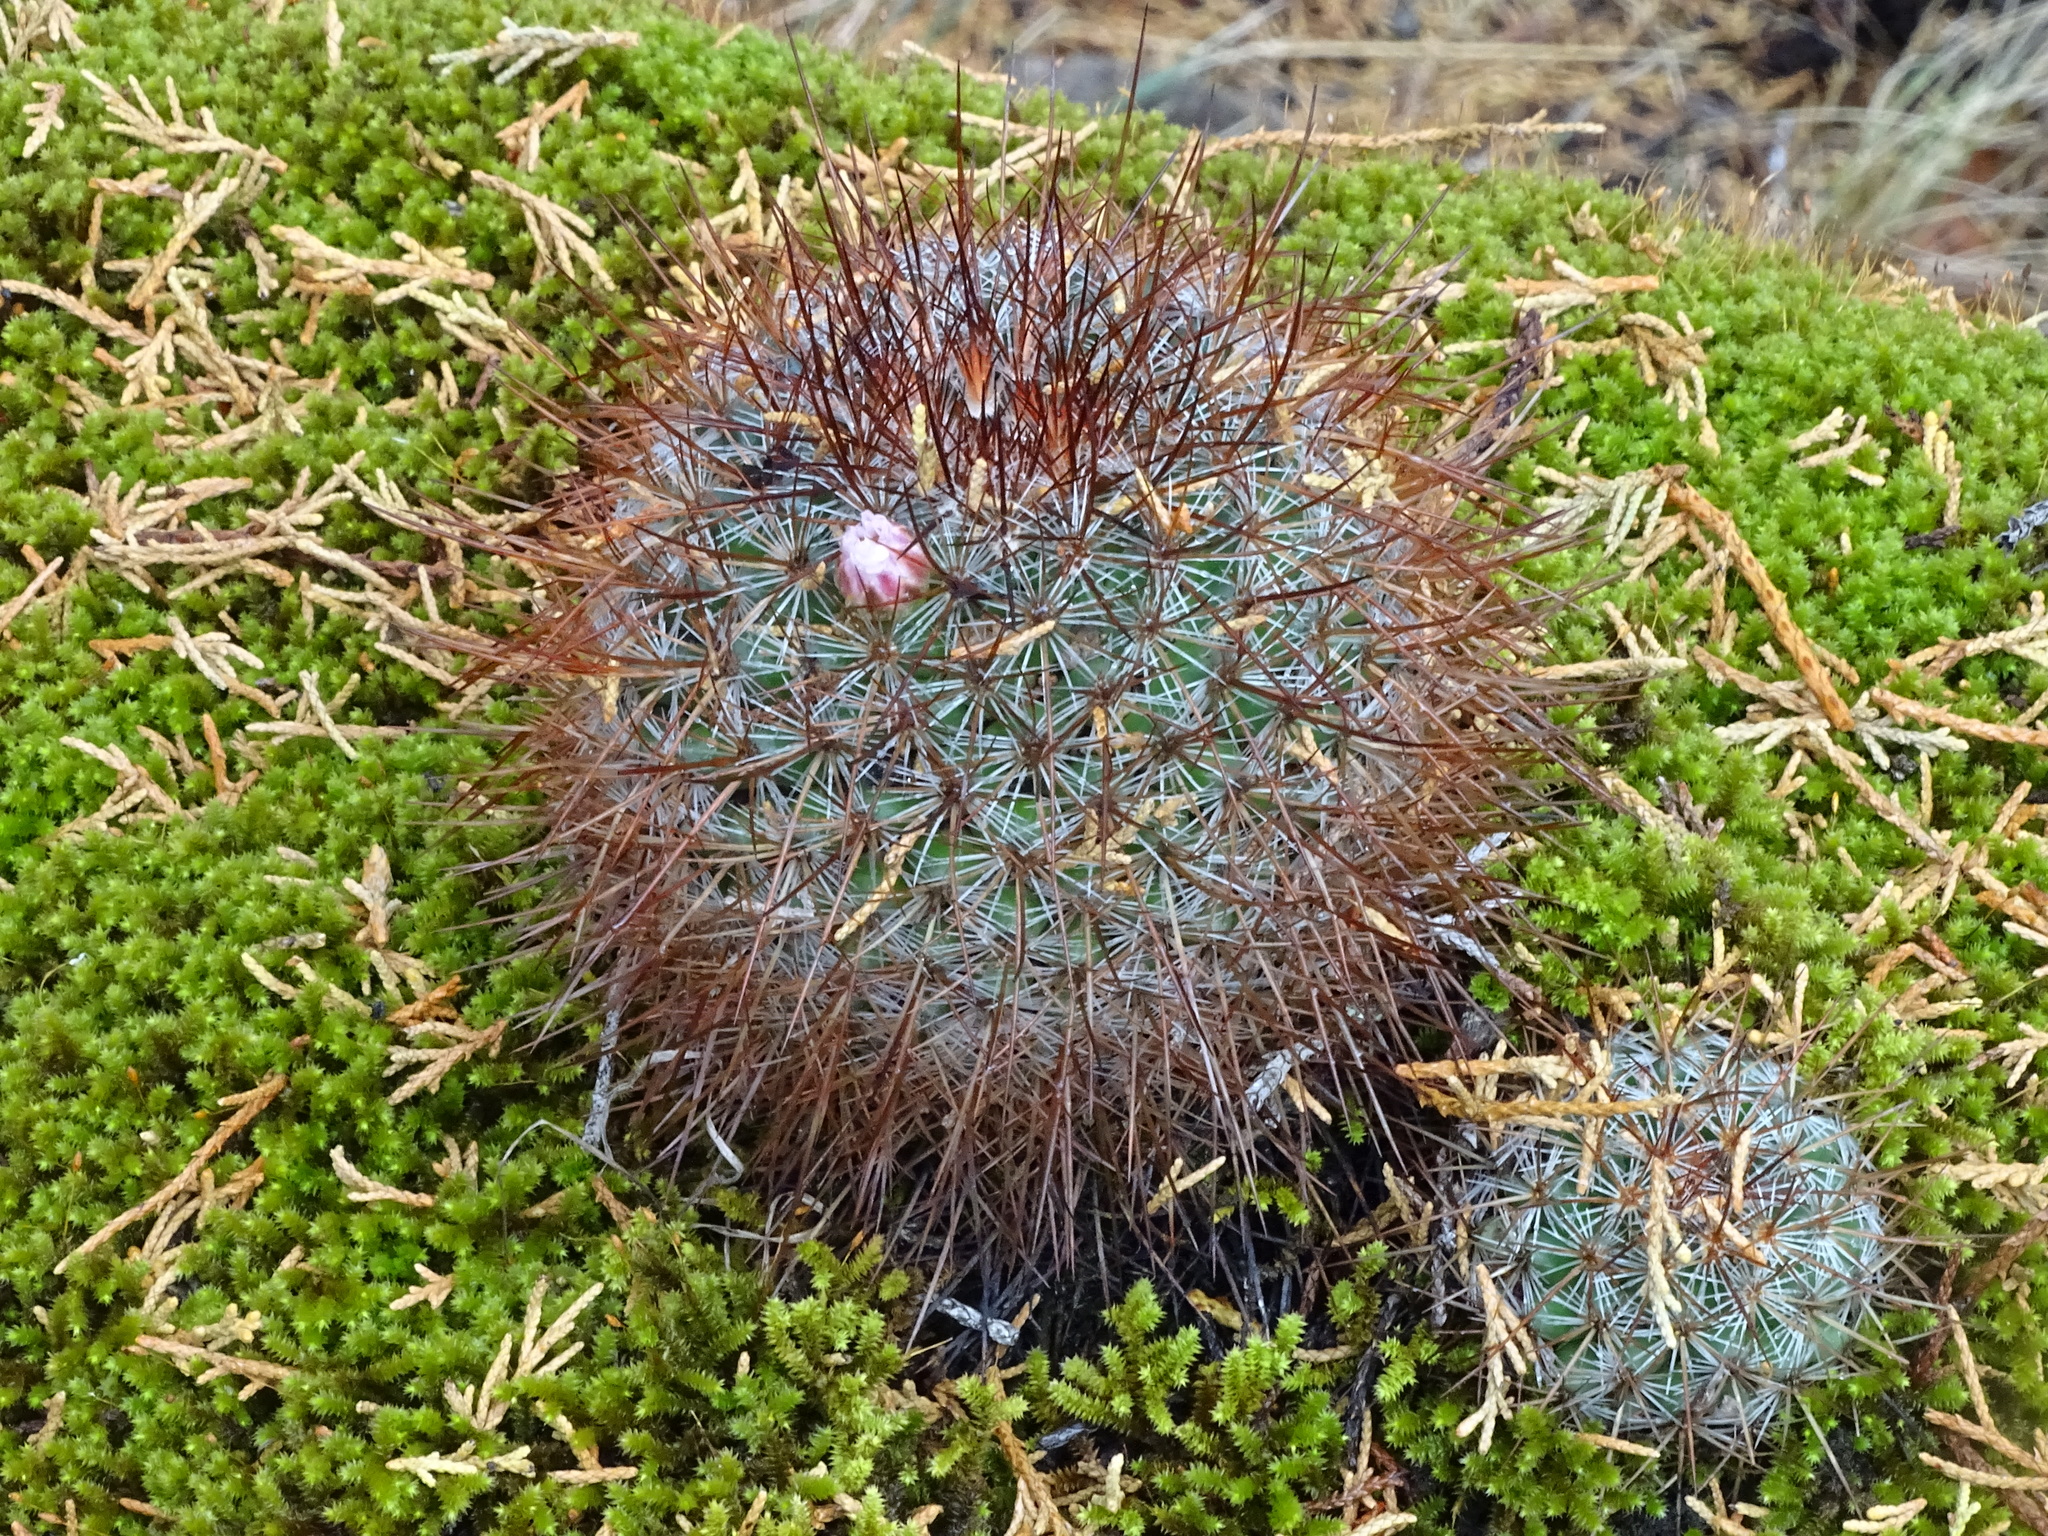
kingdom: Plantae
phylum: Tracheophyta
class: Magnoliopsida
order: Caryophyllales
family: Cactaceae
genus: Mammillaria
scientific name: Mammillaria discolor
